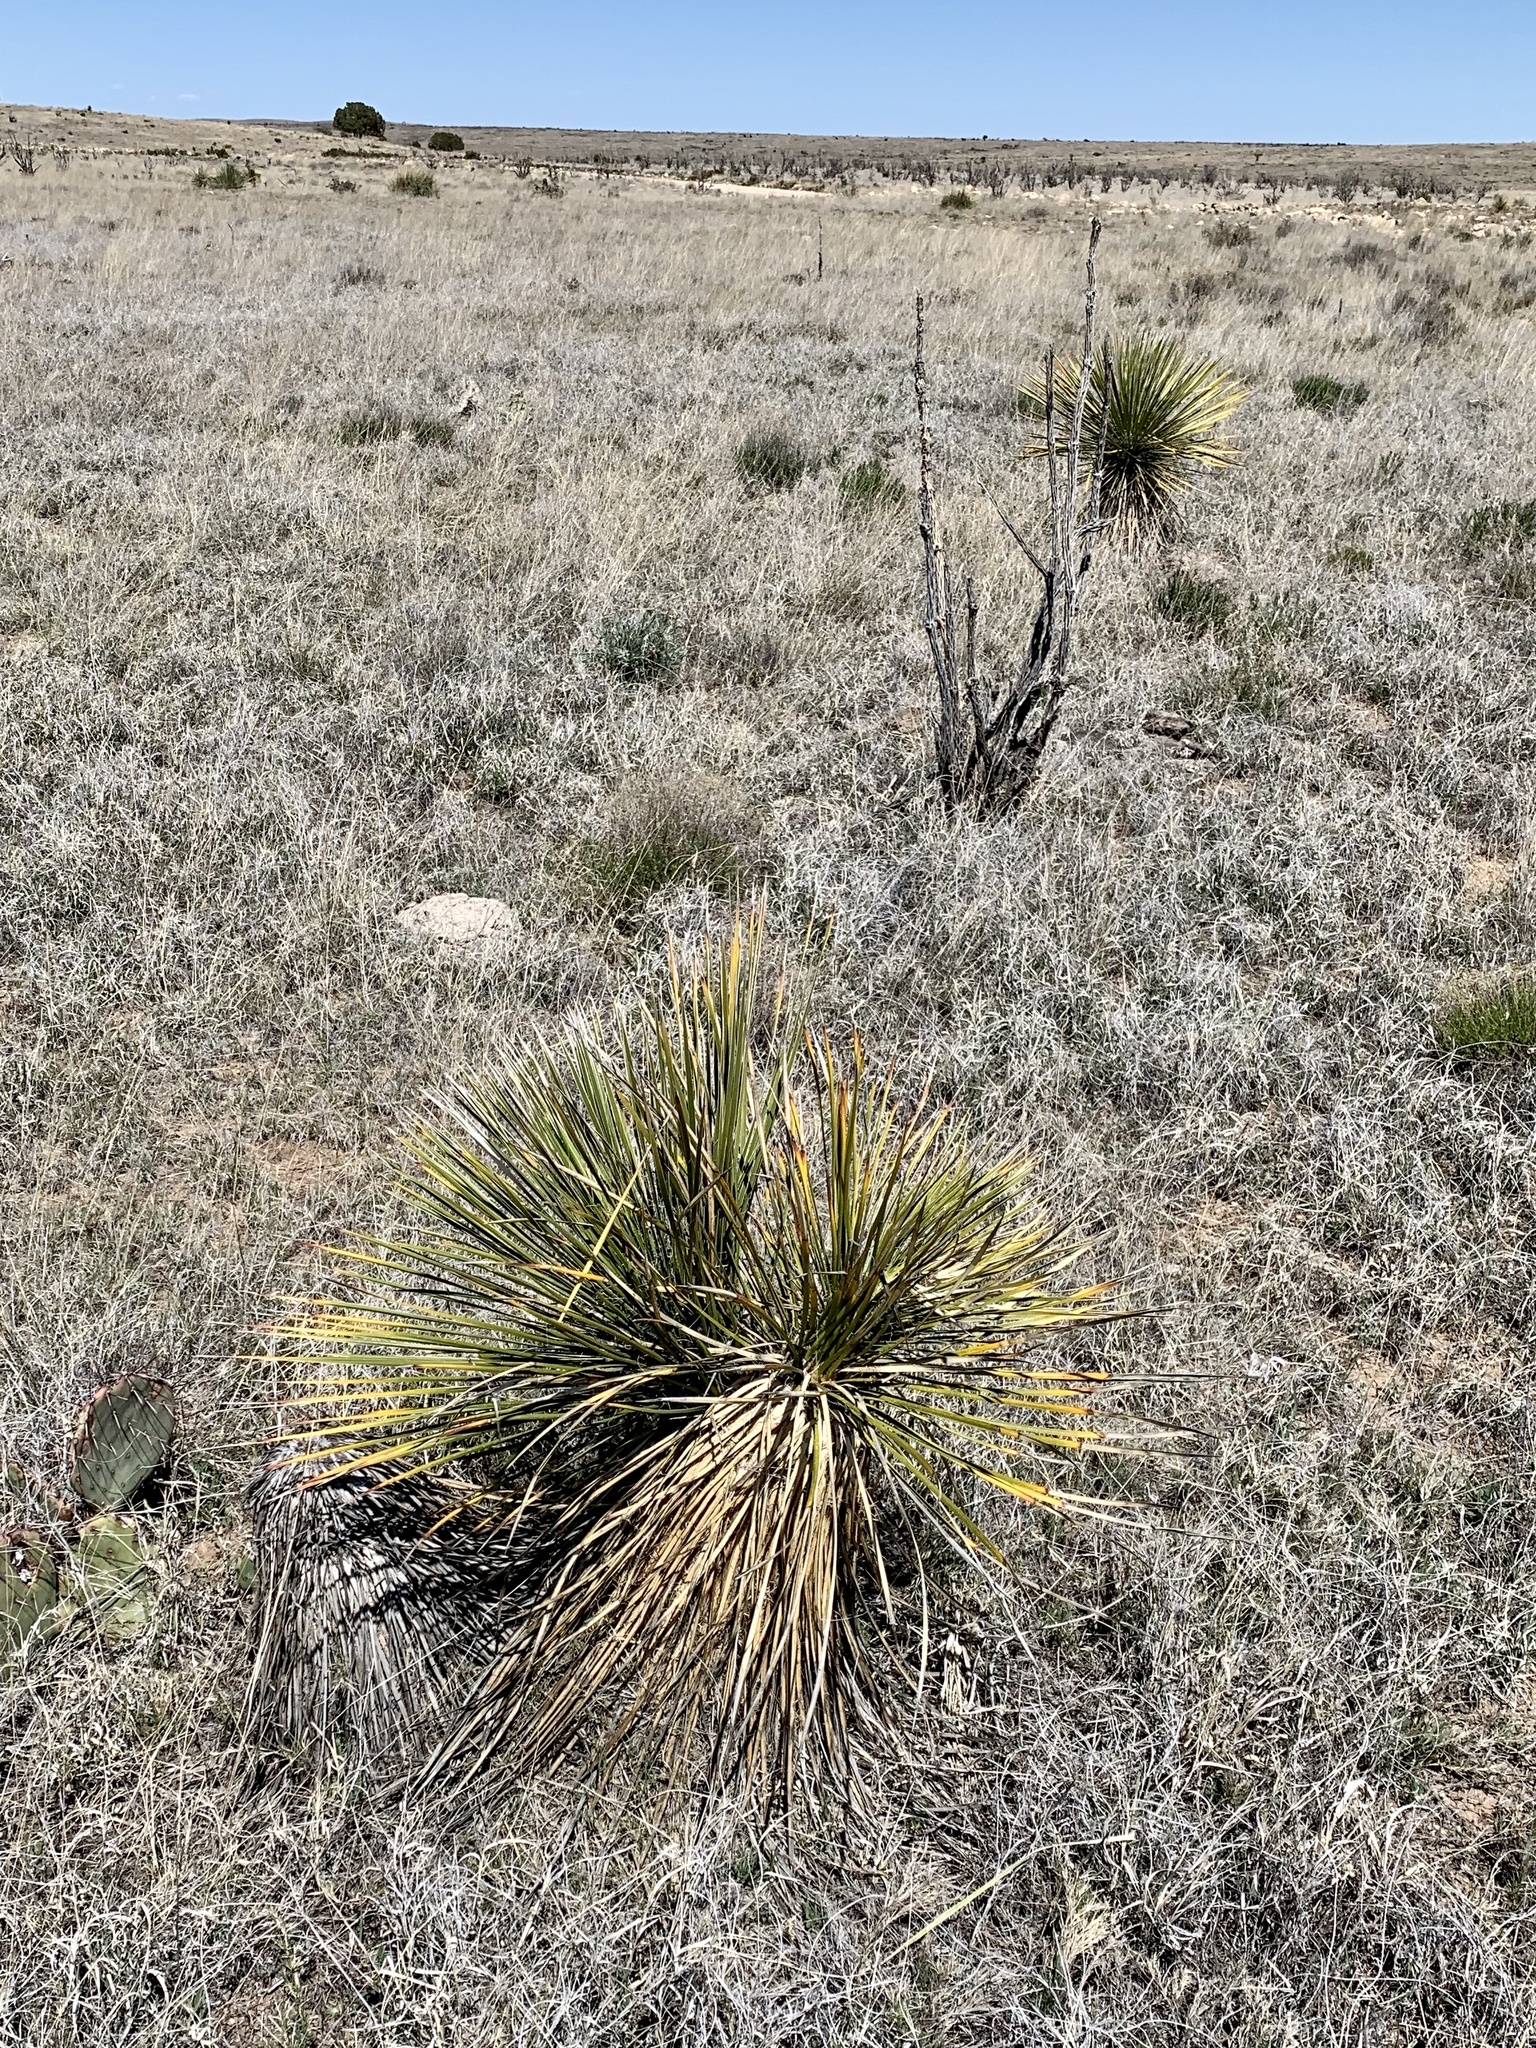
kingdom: Plantae
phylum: Tracheophyta
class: Liliopsida
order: Asparagales
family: Asparagaceae
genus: Yucca
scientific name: Yucca elata
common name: Palmella
